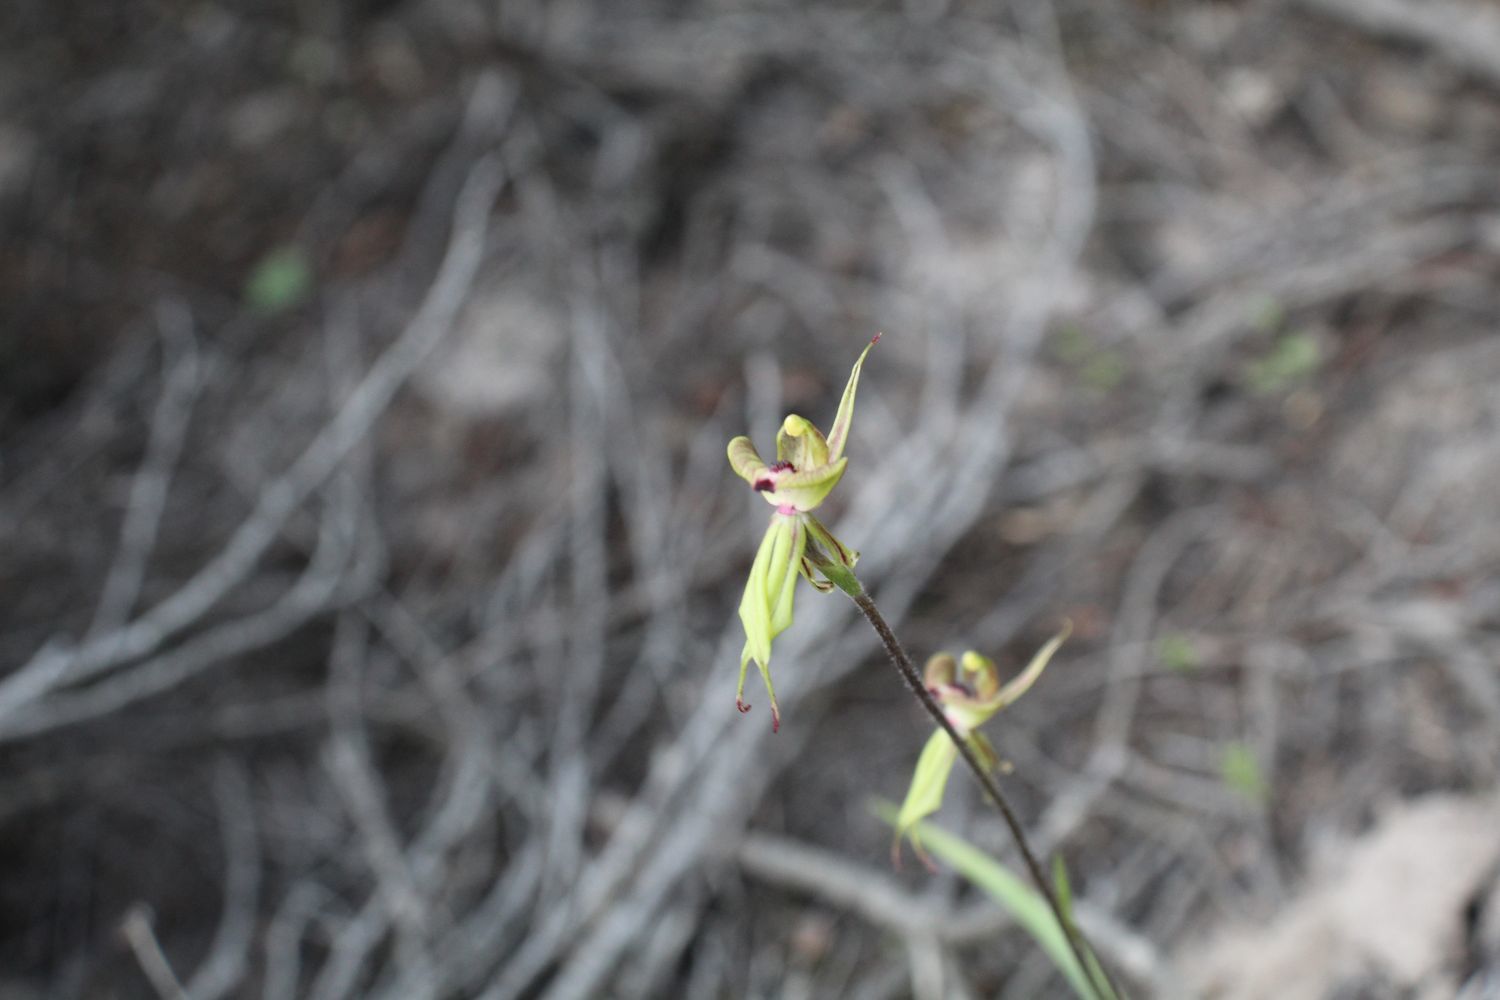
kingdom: Plantae
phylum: Tracheophyta
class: Liliopsida
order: Asparagales
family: Orchidaceae
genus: Caladenia
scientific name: Caladenia brevisura
